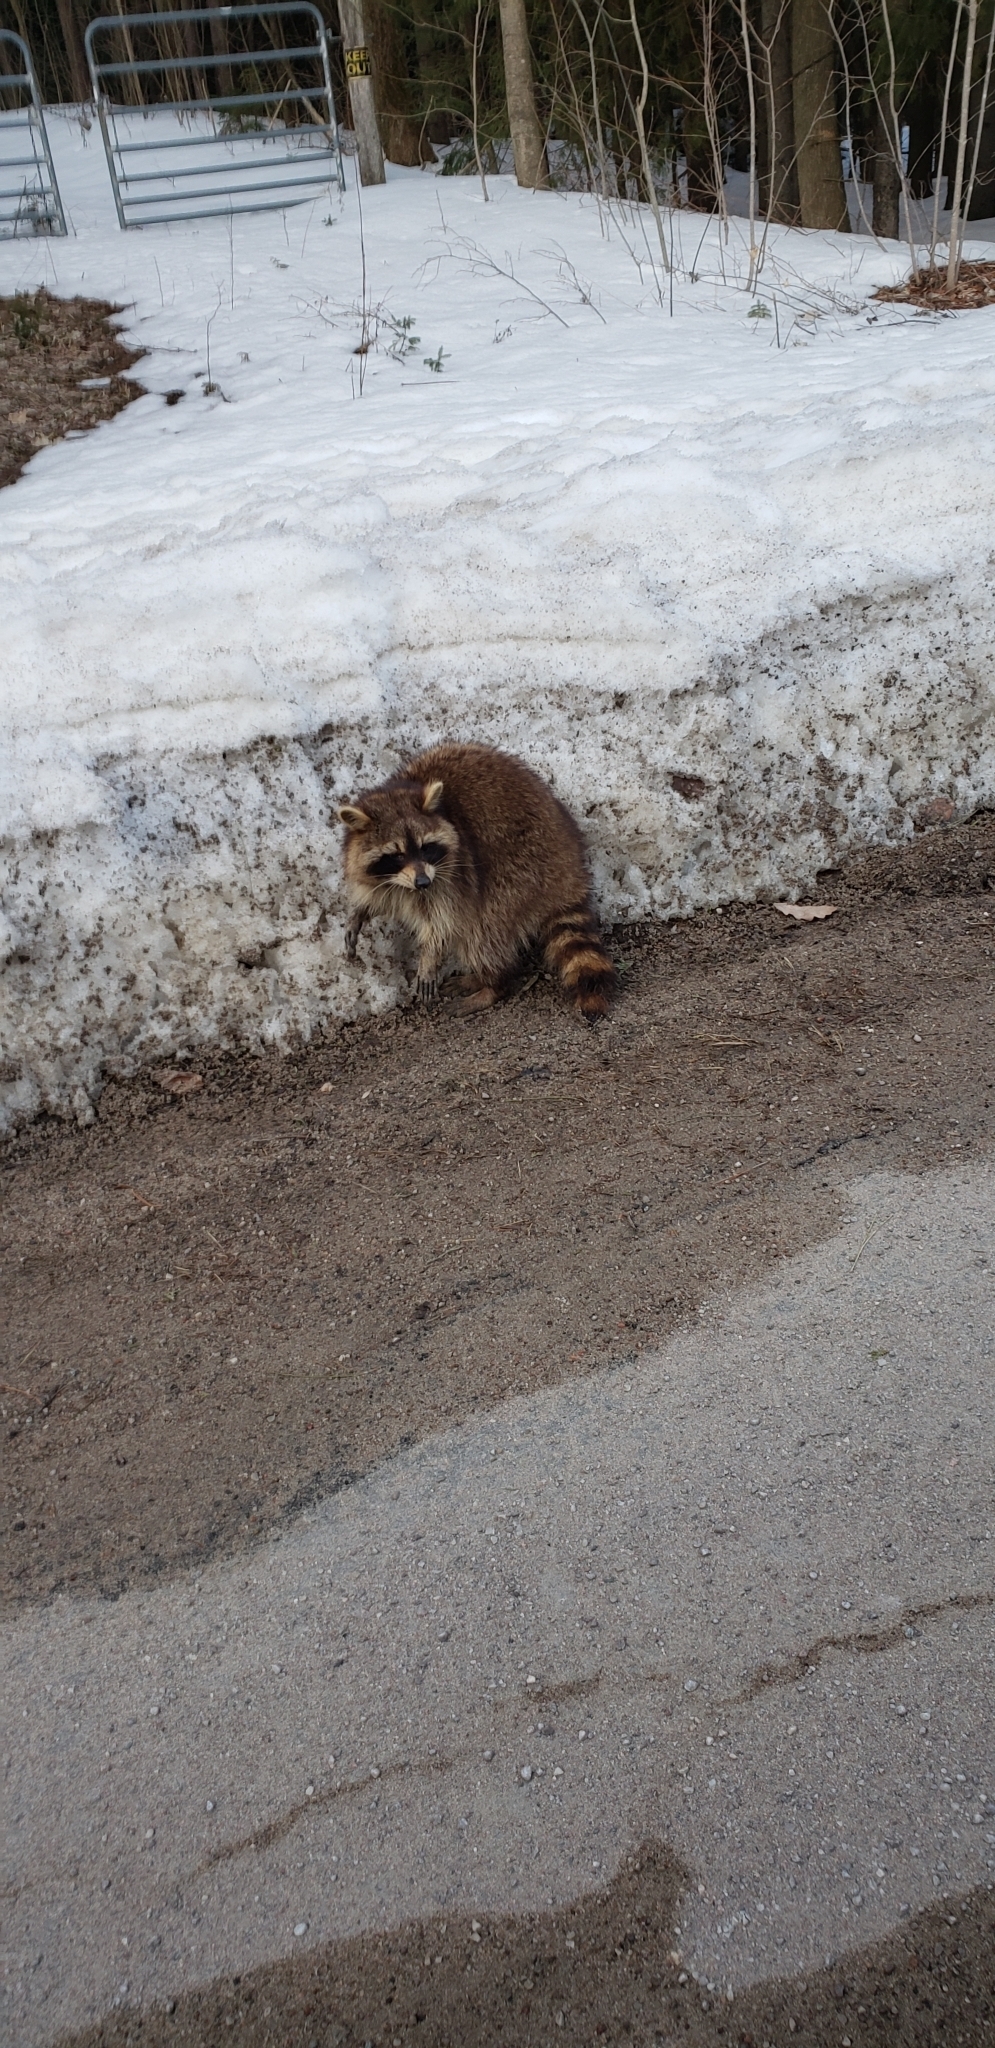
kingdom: Animalia
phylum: Chordata
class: Mammalia
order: Carnivora
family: Procyonidae
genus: Procyon
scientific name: Procyon lotor
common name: Raccoon
